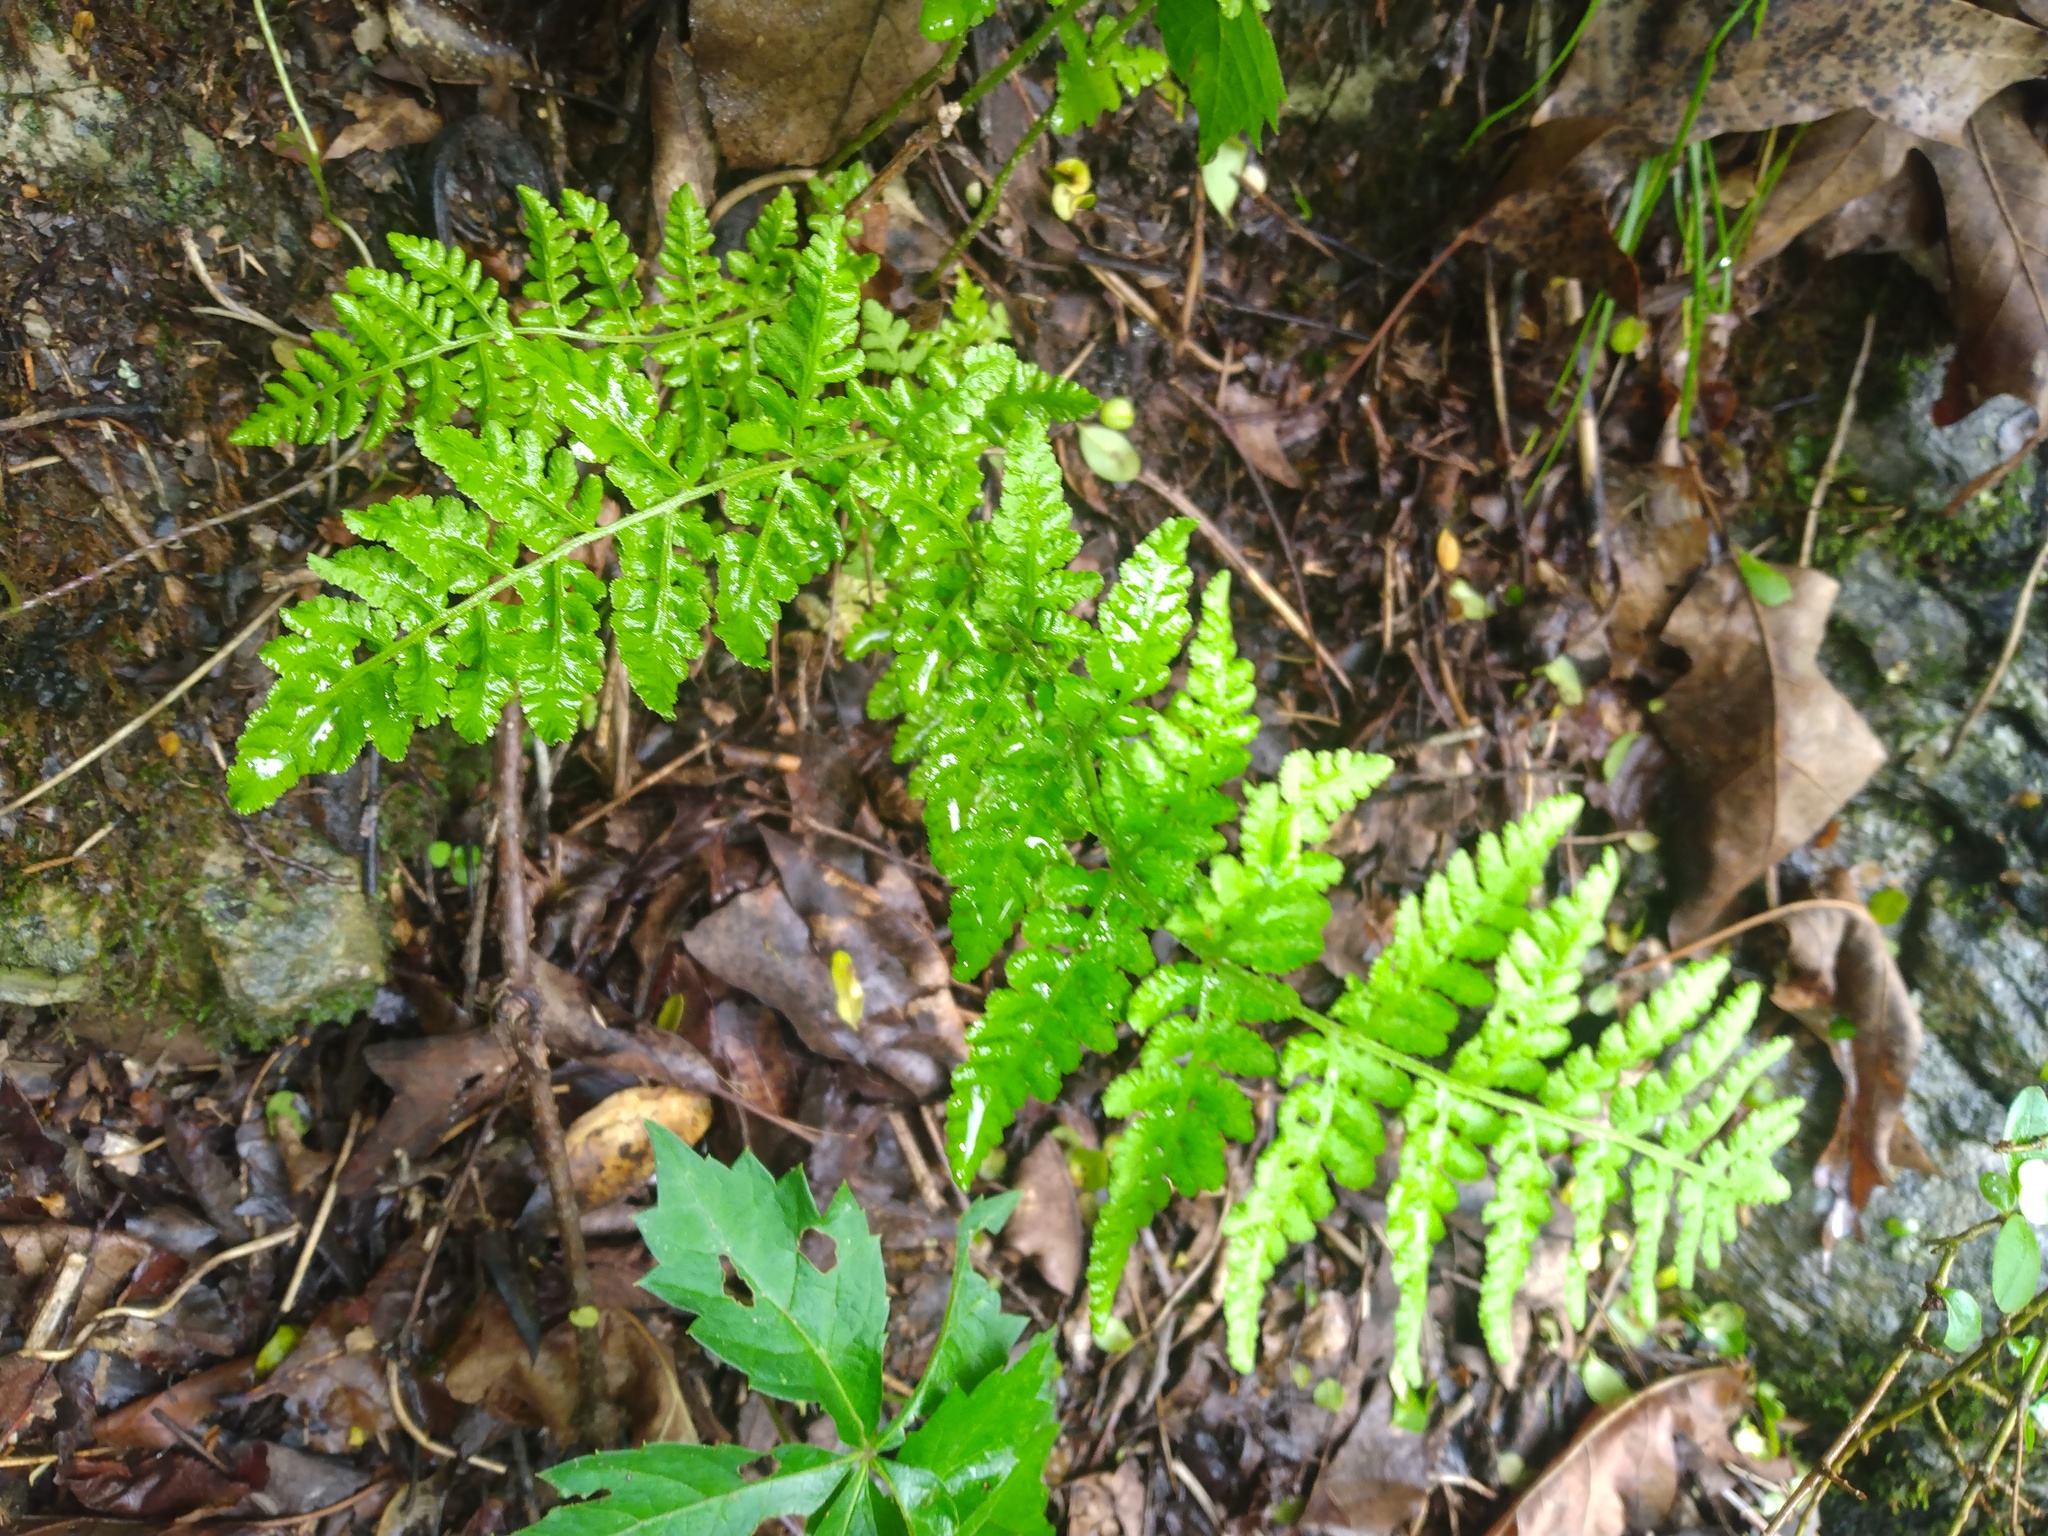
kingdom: Plantae
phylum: Tracheophyta
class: Polypodiopsida
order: Polypodiales
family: Woodsiaceae
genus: Physematium
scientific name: Physematium obtusum
